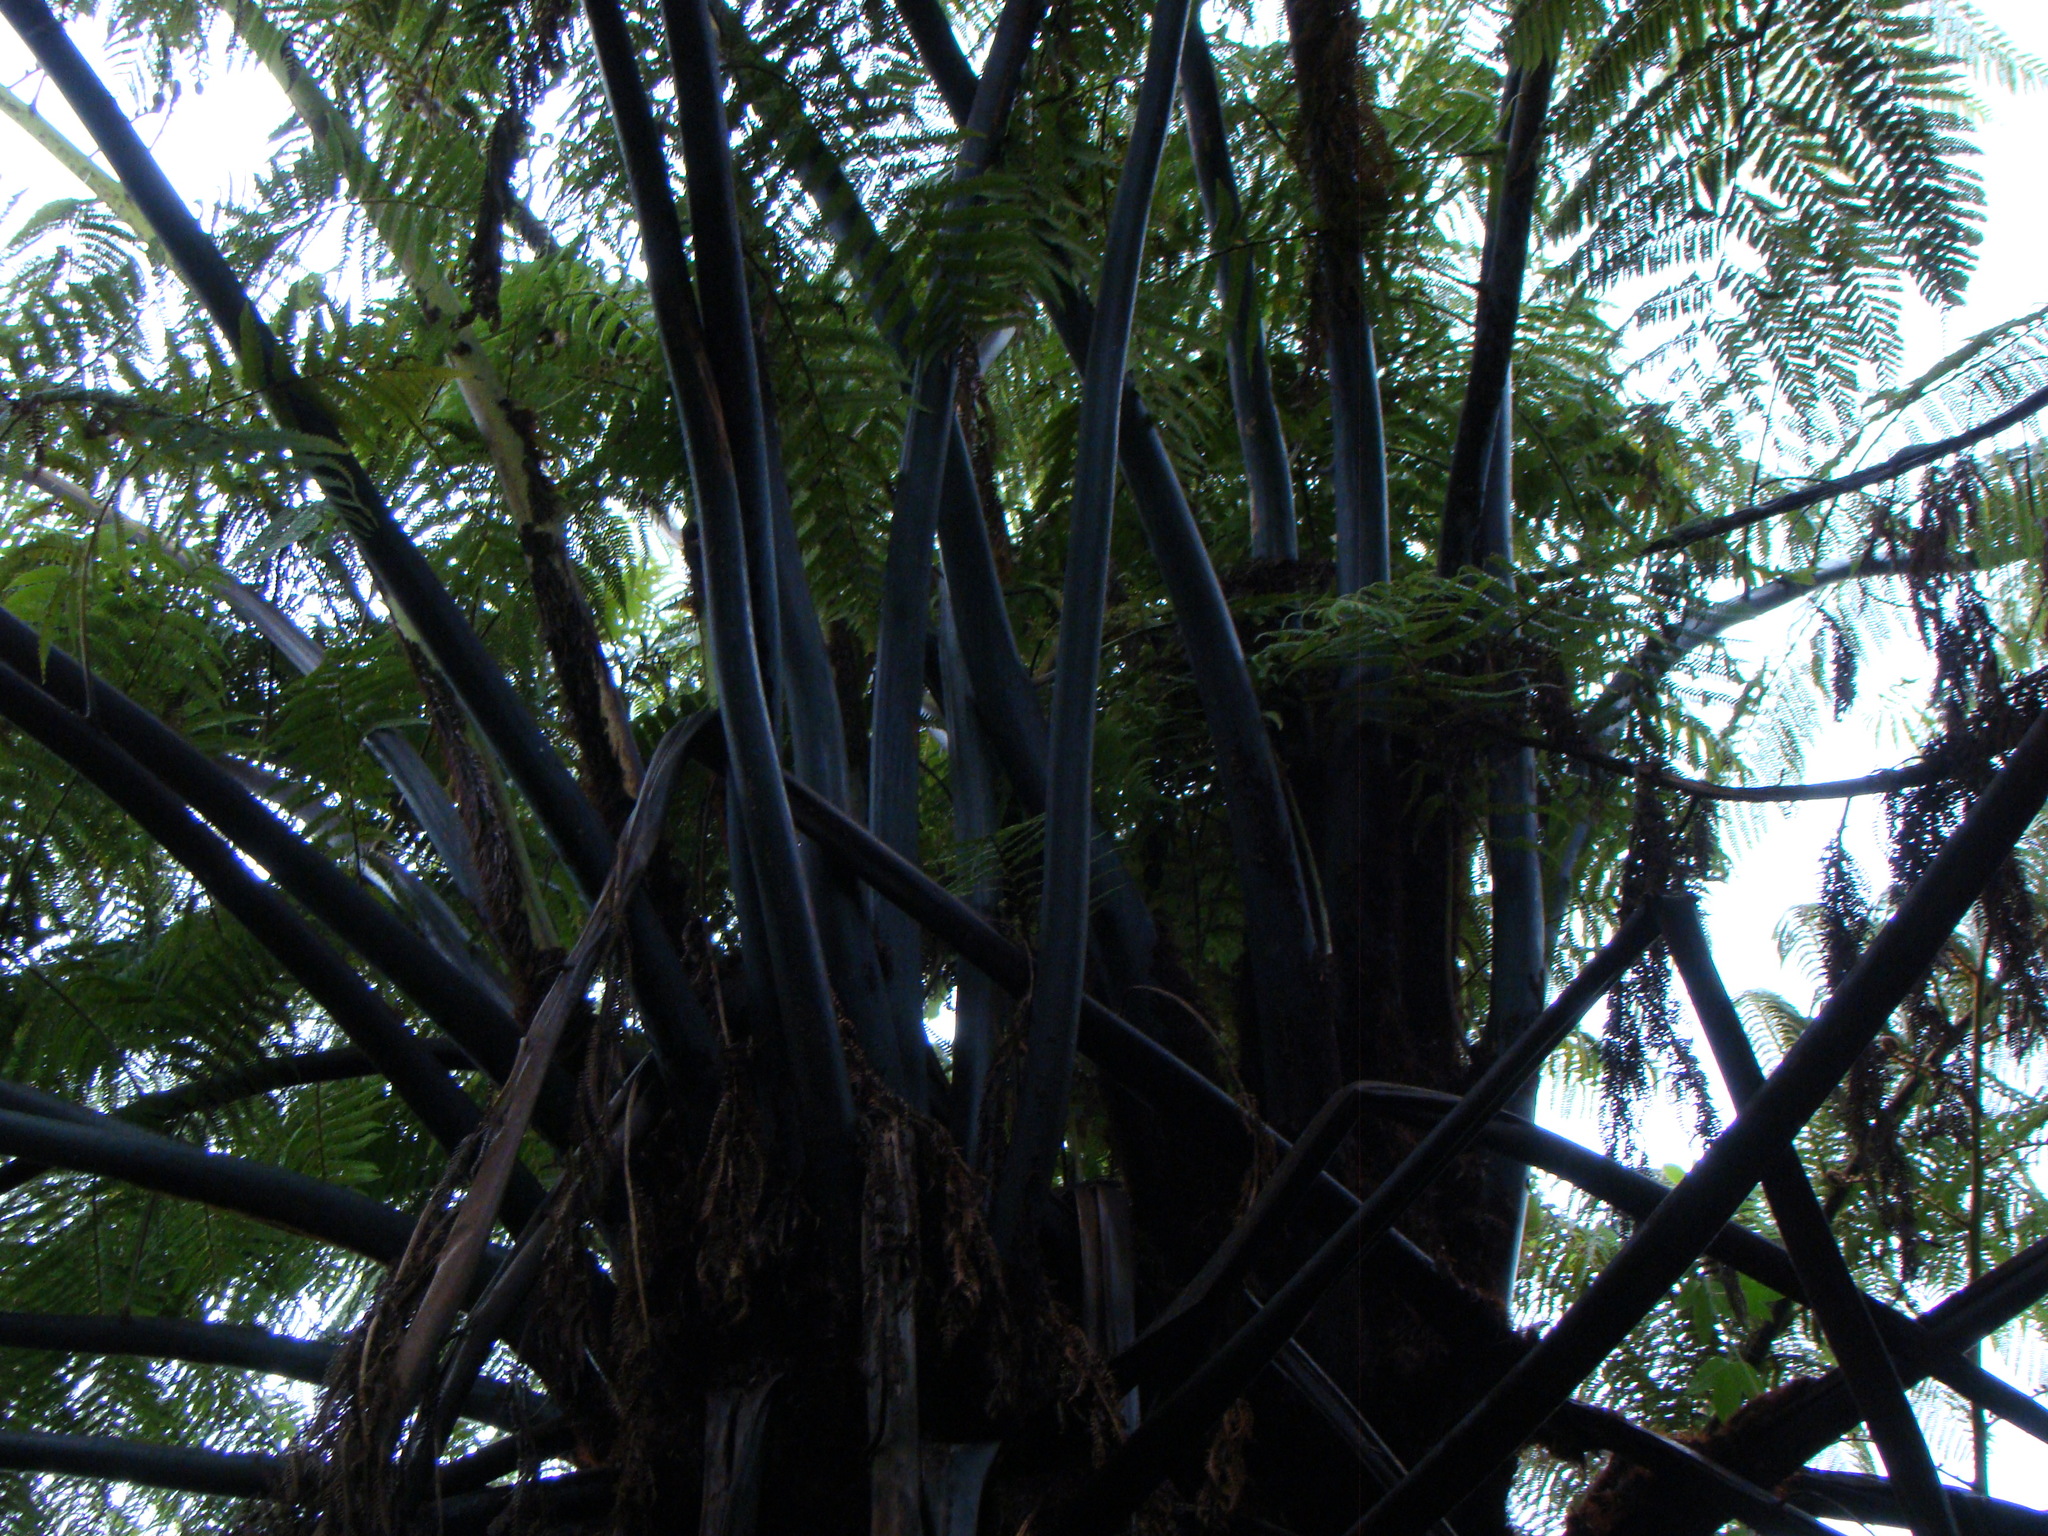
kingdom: Plantae
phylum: Tracheophyta
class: Polypodiopsida
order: Cyatheales
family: Cyatheaceae
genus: Sphaeropteris
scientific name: Sphaeropteris medullaris
